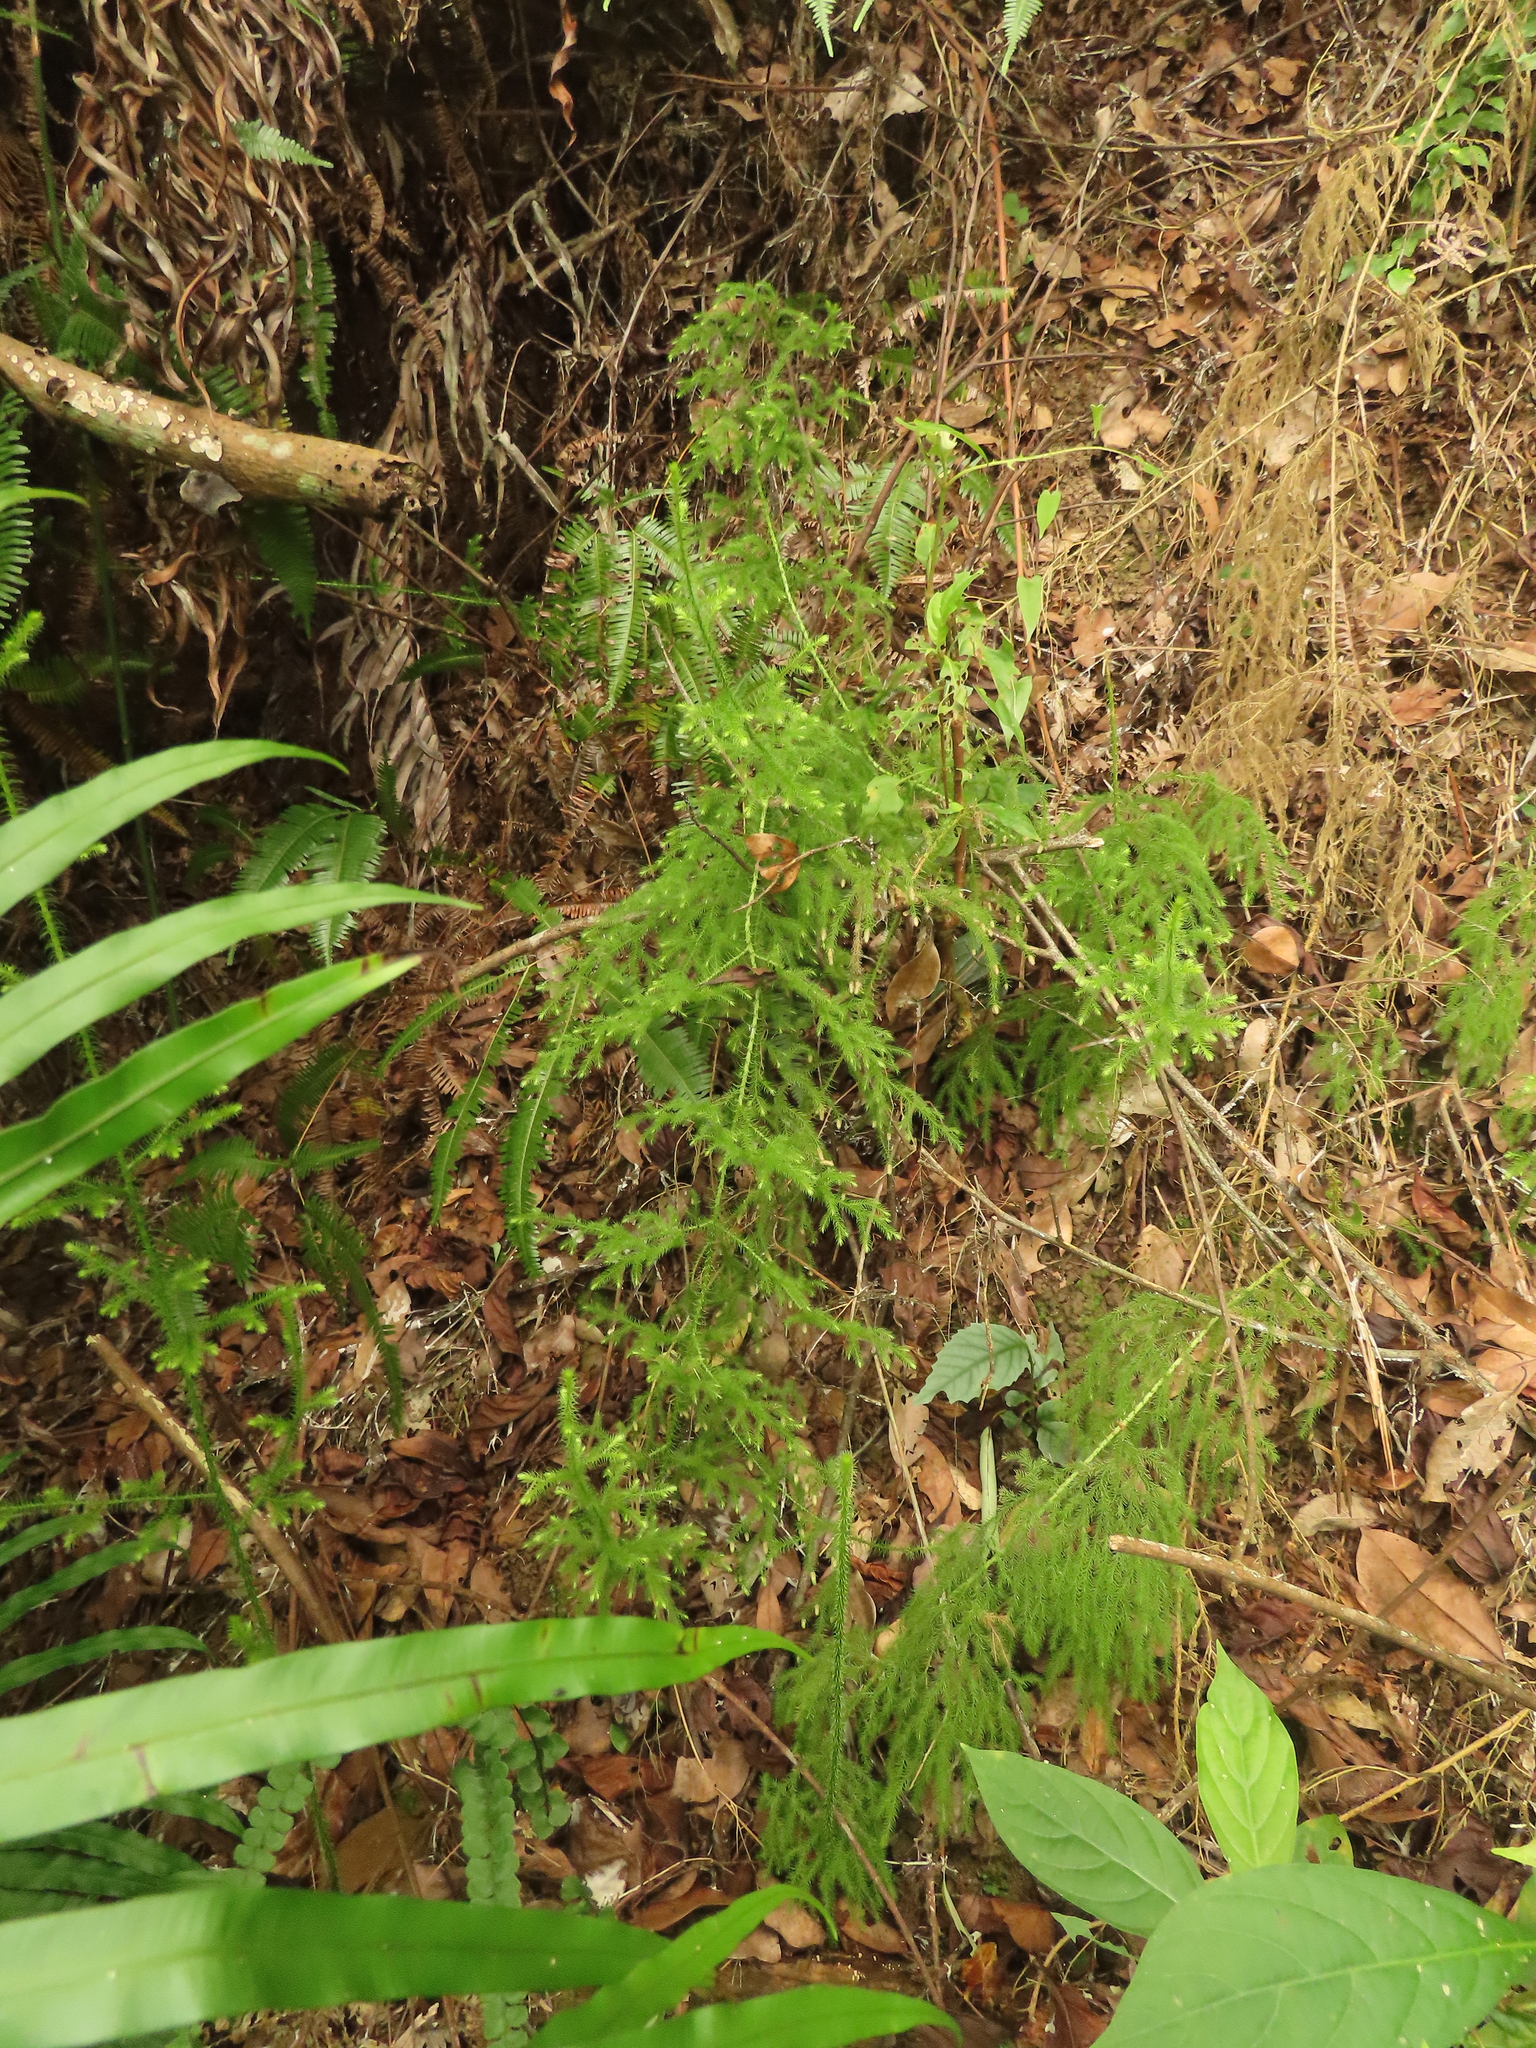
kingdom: Plantae
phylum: Tracheophyta
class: Lycopodiopsida
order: Lycopodiales
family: Lycopodiaceae
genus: Palhinhaea
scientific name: Palhinhaea cernua
